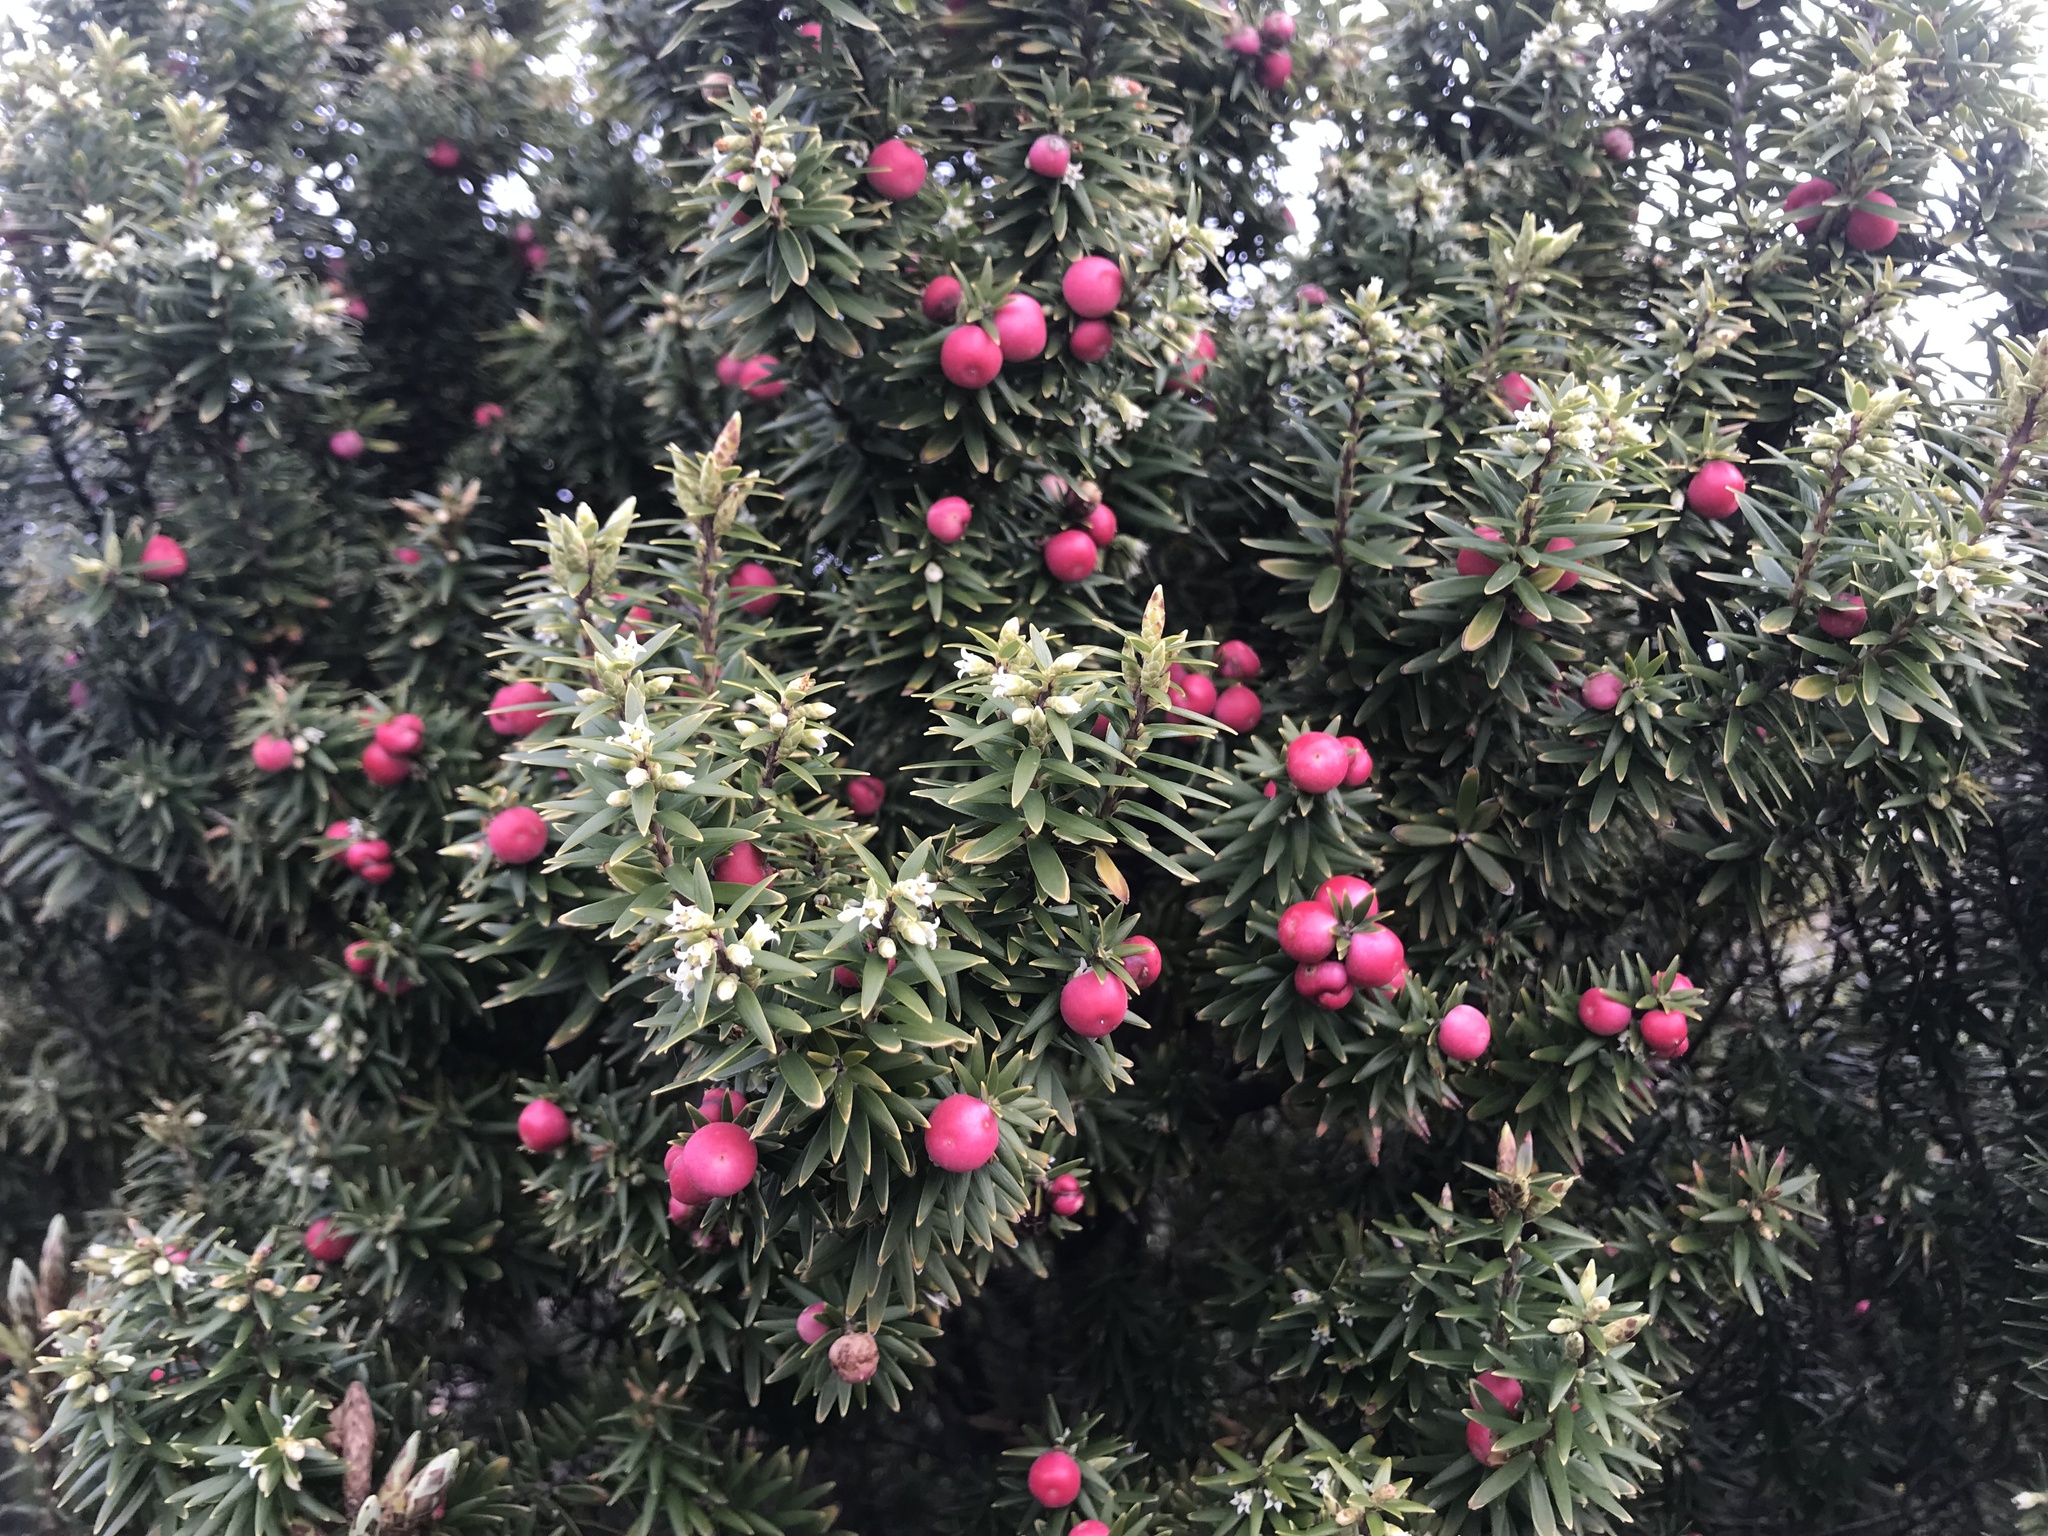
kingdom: Plantae
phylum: Tracheophyta
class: Magnoliopsida
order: Ericales
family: Ericaceae
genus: Leptecophylla
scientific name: Leptecophylla robusta
